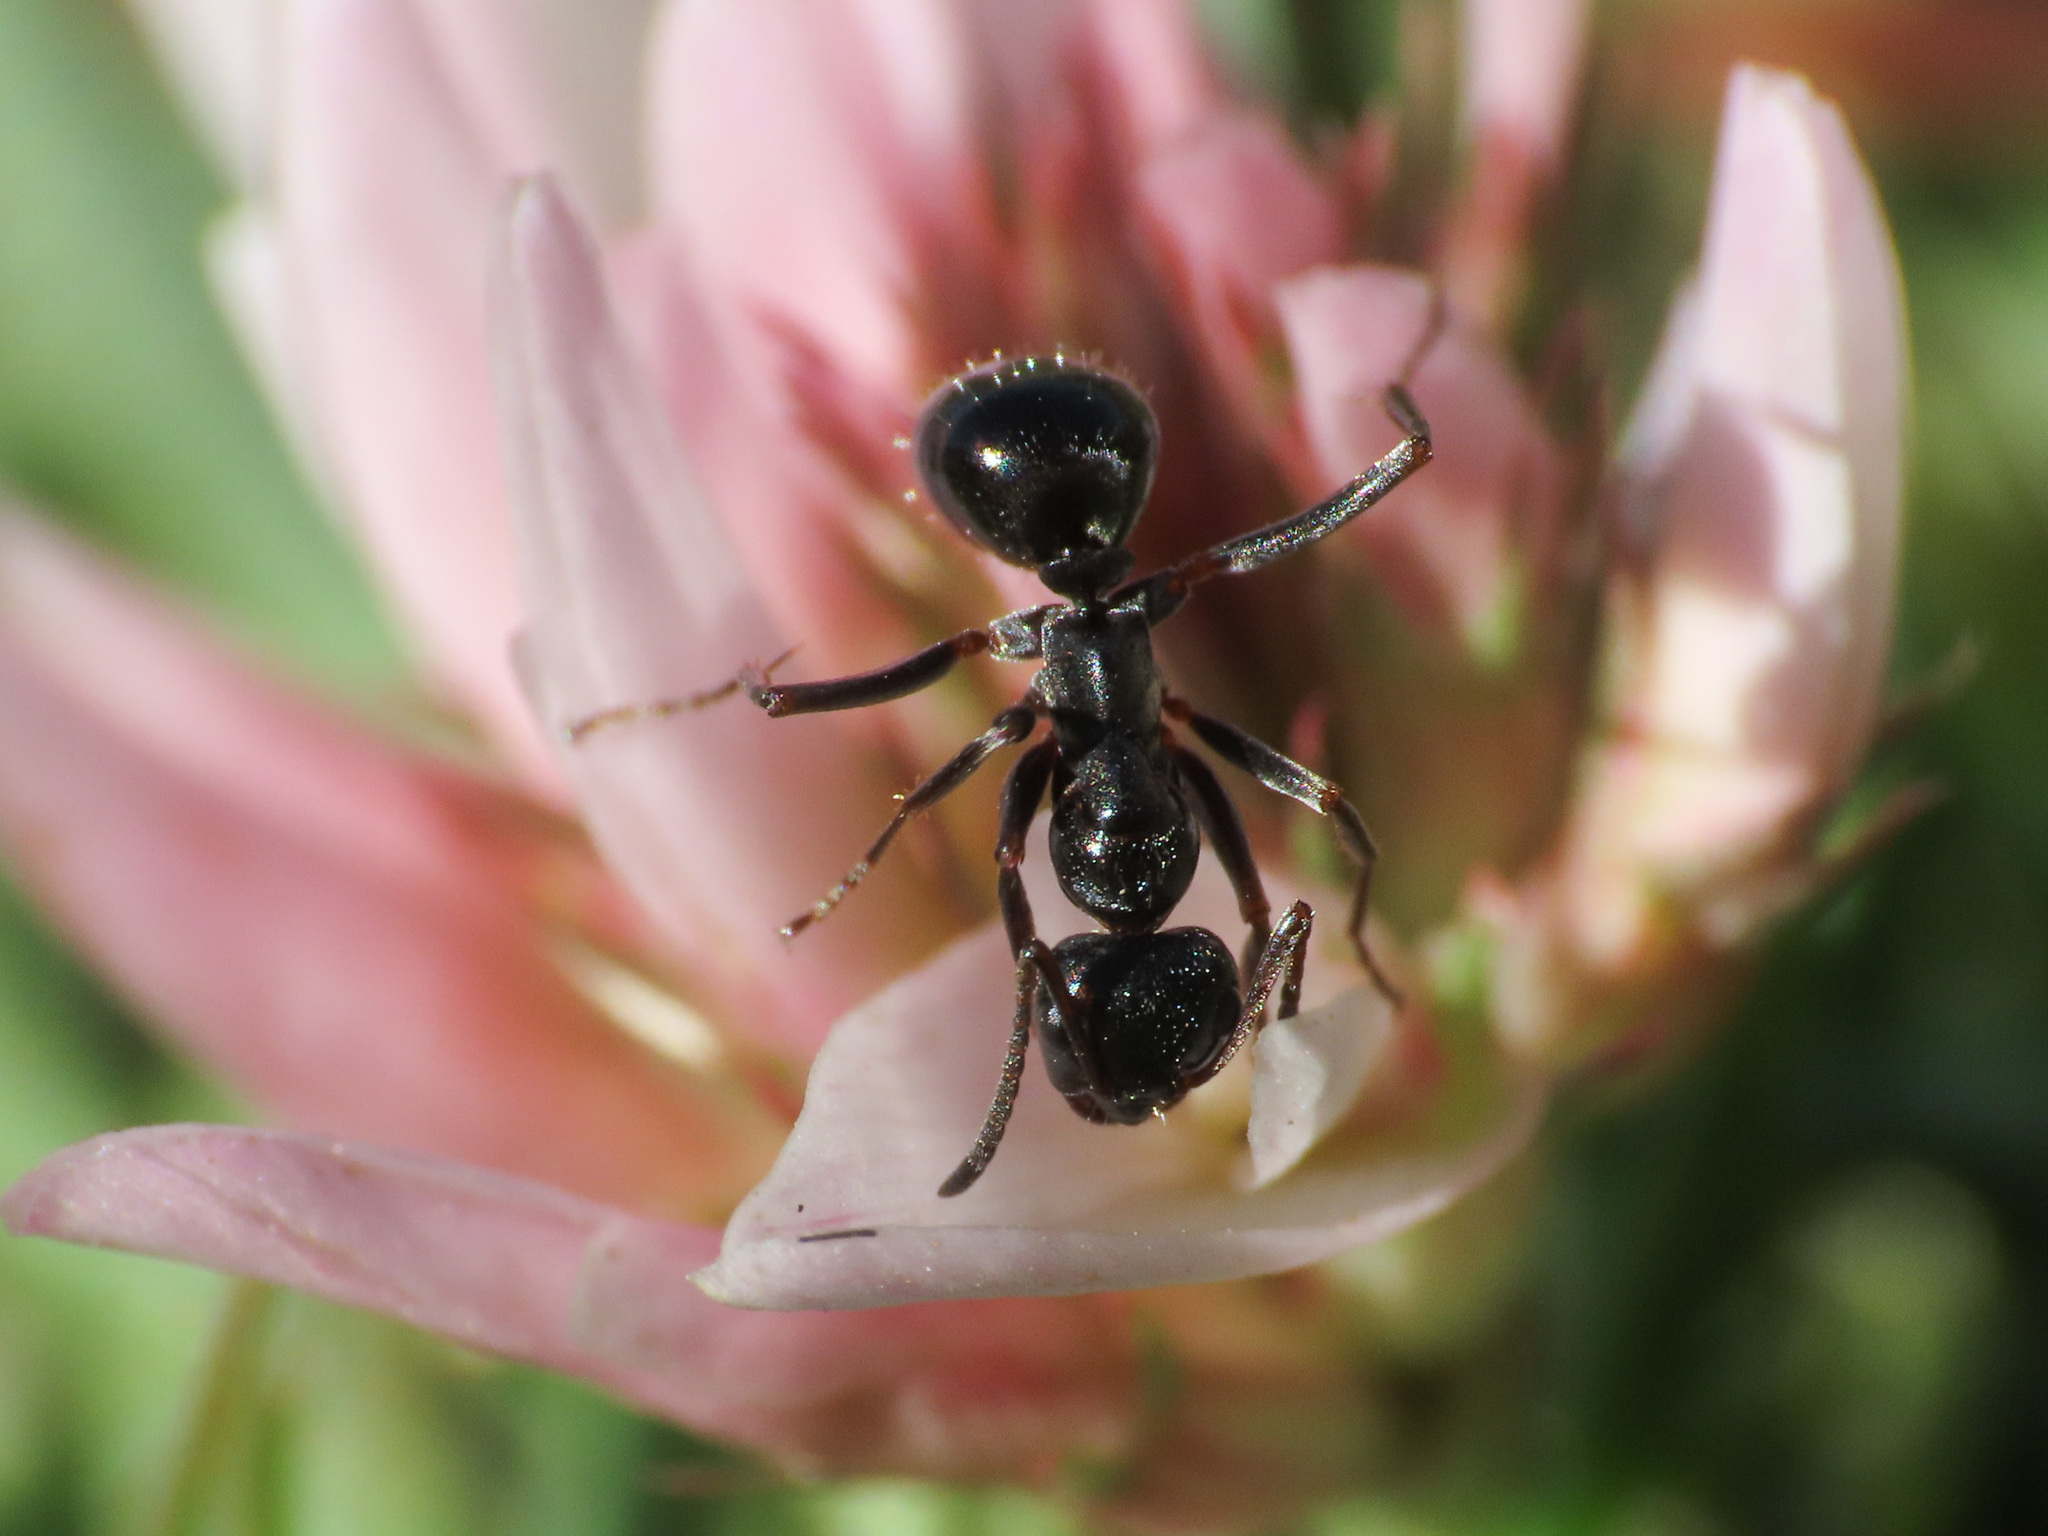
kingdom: Animalia
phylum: Arthropoda
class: Insecta
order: Hymenoptera
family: Formicidae
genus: Formica
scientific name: Formica gagates
